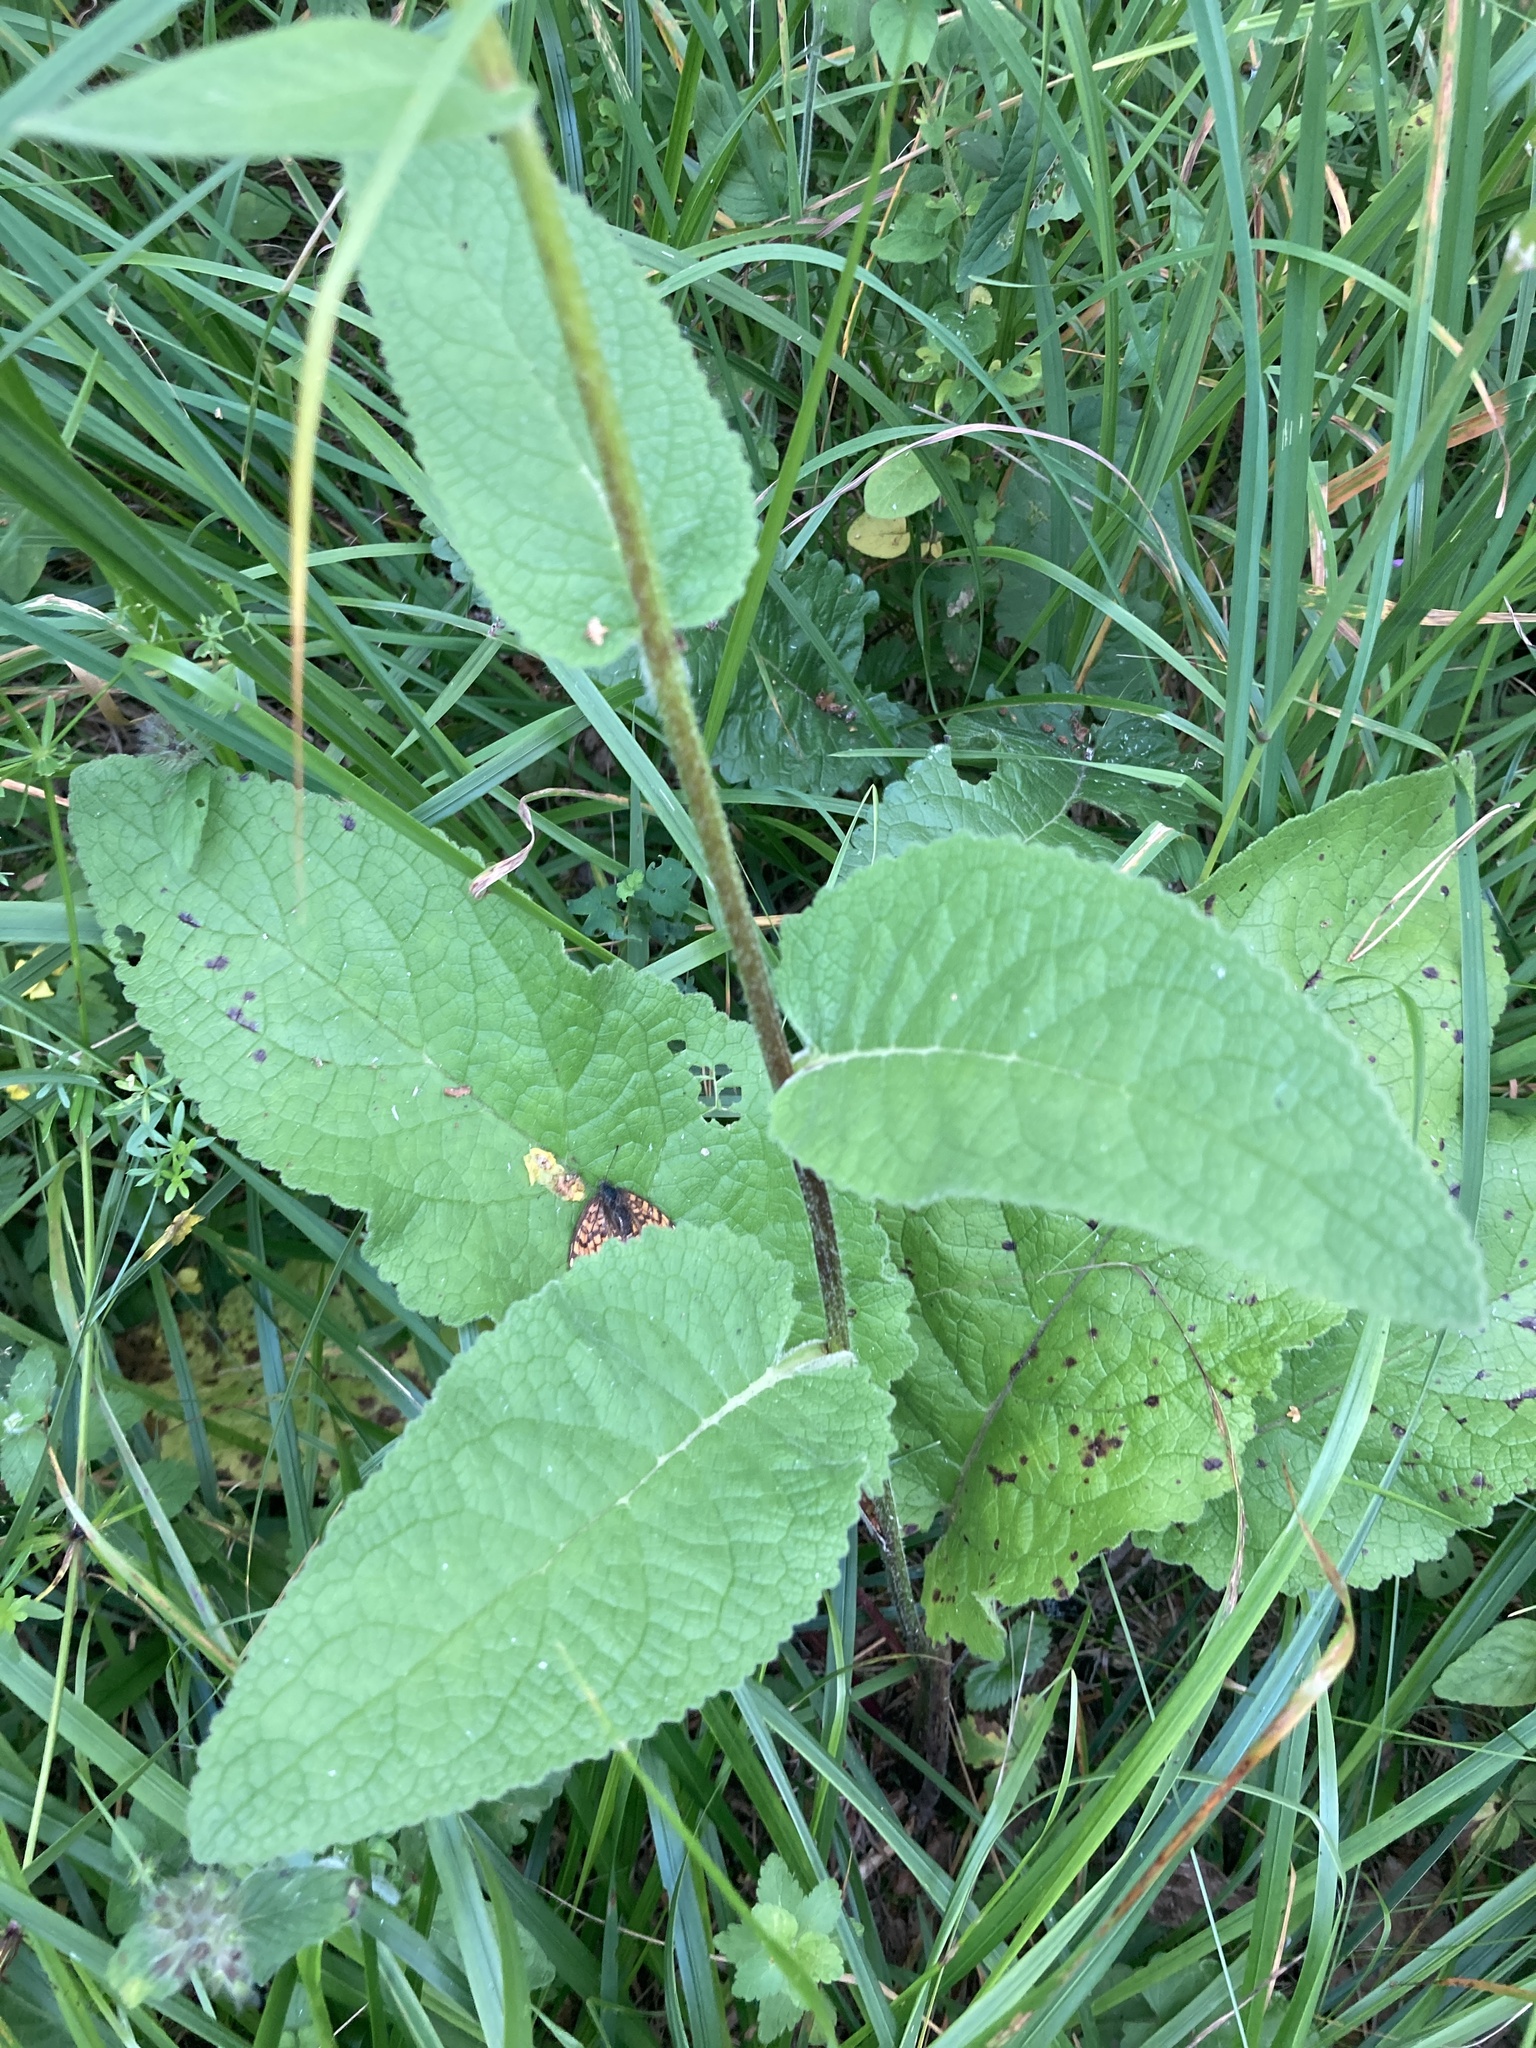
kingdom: Plantae
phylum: Tracheophyta
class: Magnoliopsida
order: Lamiales
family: Scrophulariaceae
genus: Verbascum
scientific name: Verbascum nigrum
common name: Dark mullein
